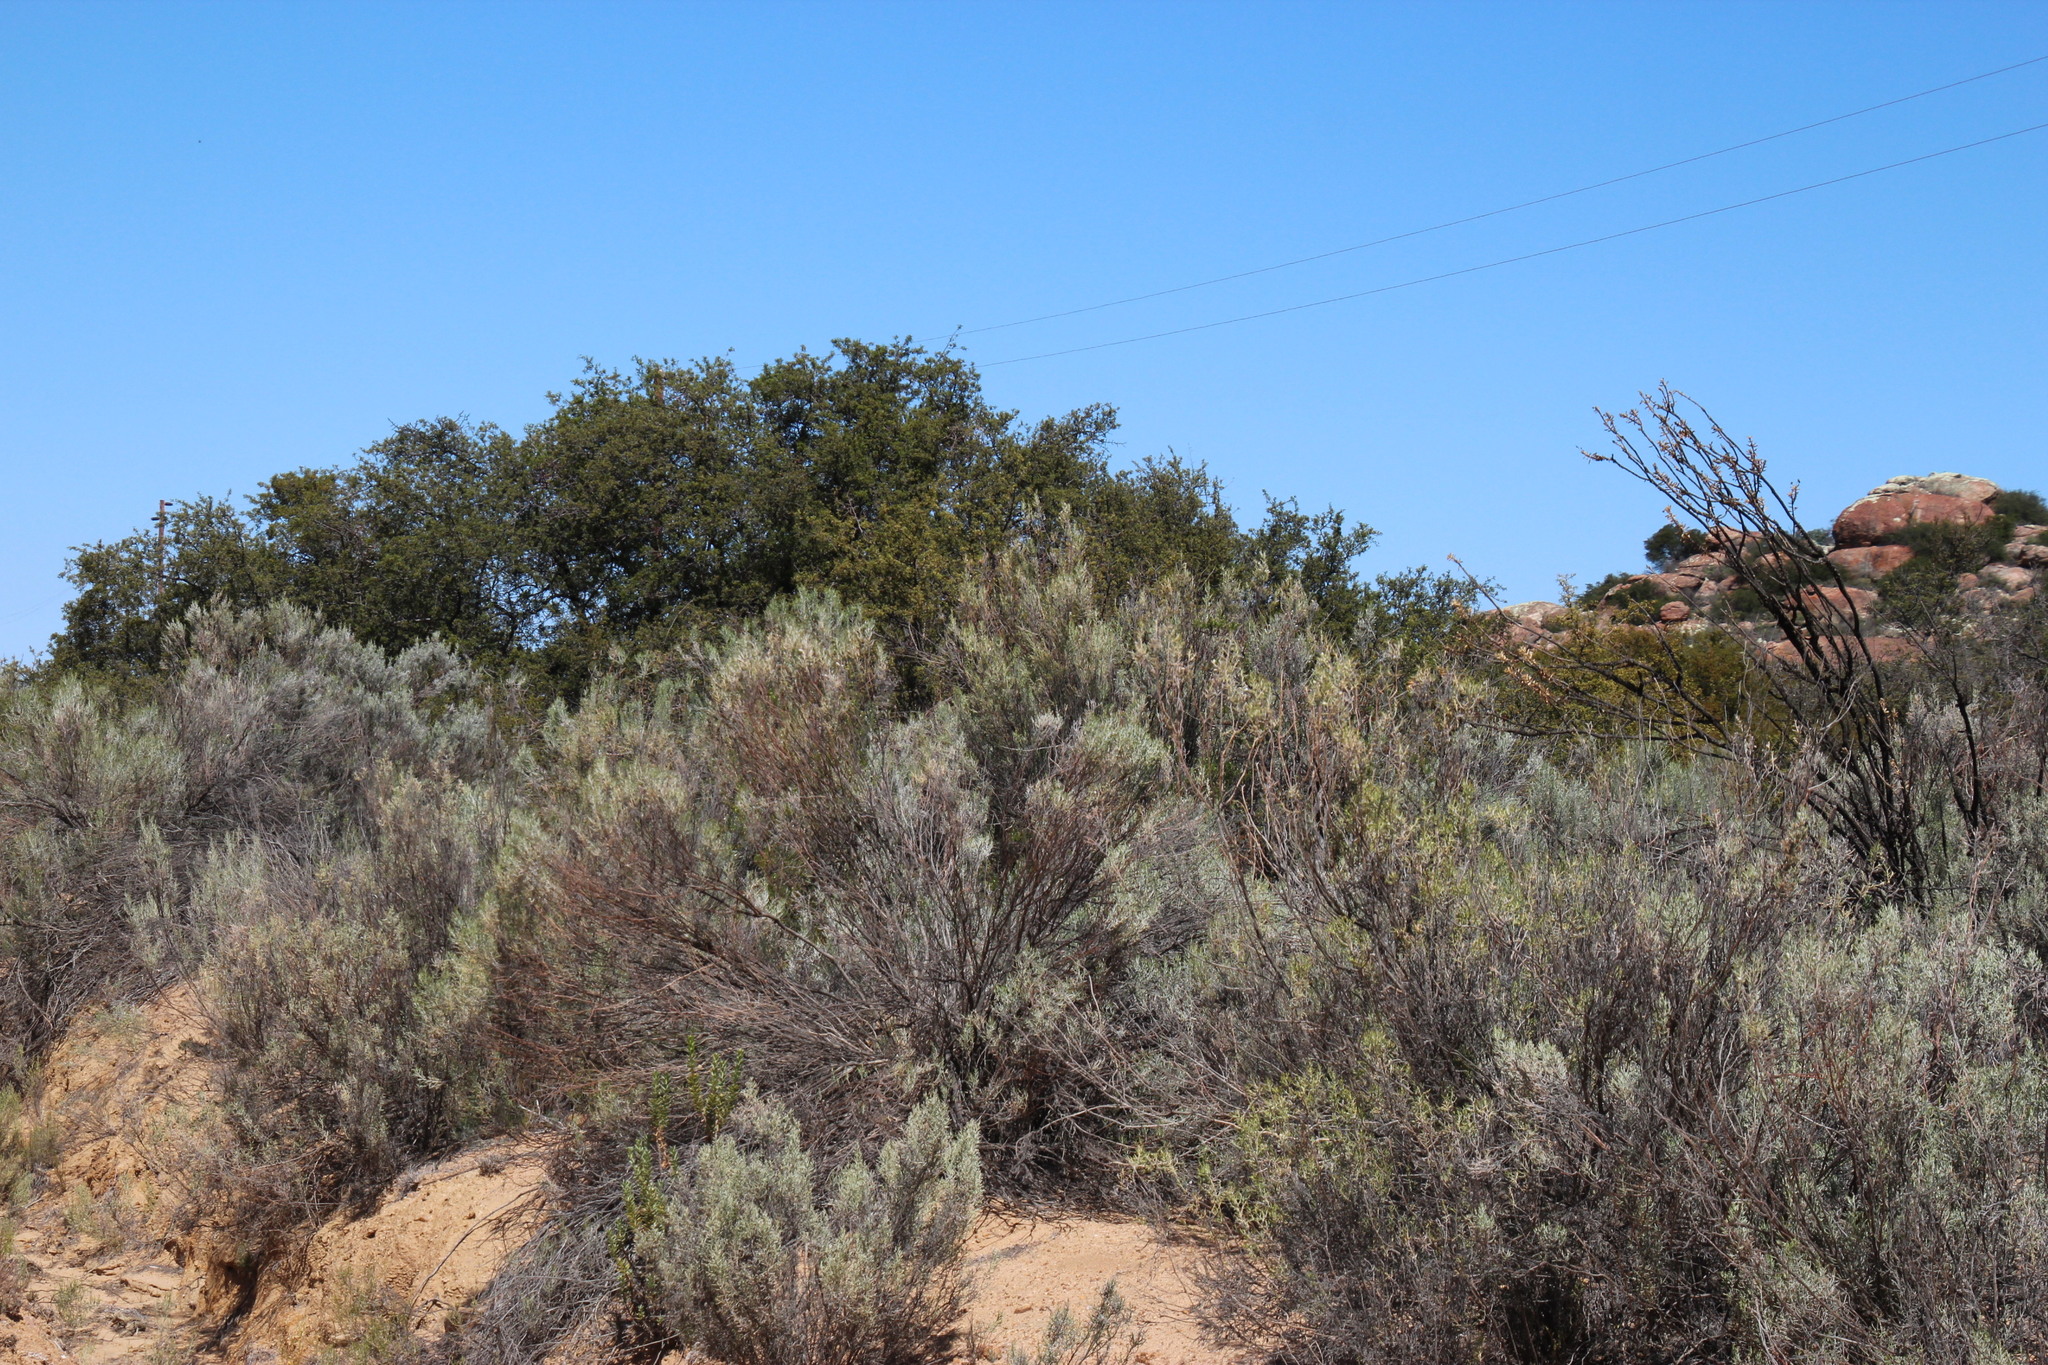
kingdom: Plantae
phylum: Tracheophyta
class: Magnoliopsida
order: Asterales
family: Asteraceae
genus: Dicerothamnus
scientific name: Dicerothamnus rhinocerotis
